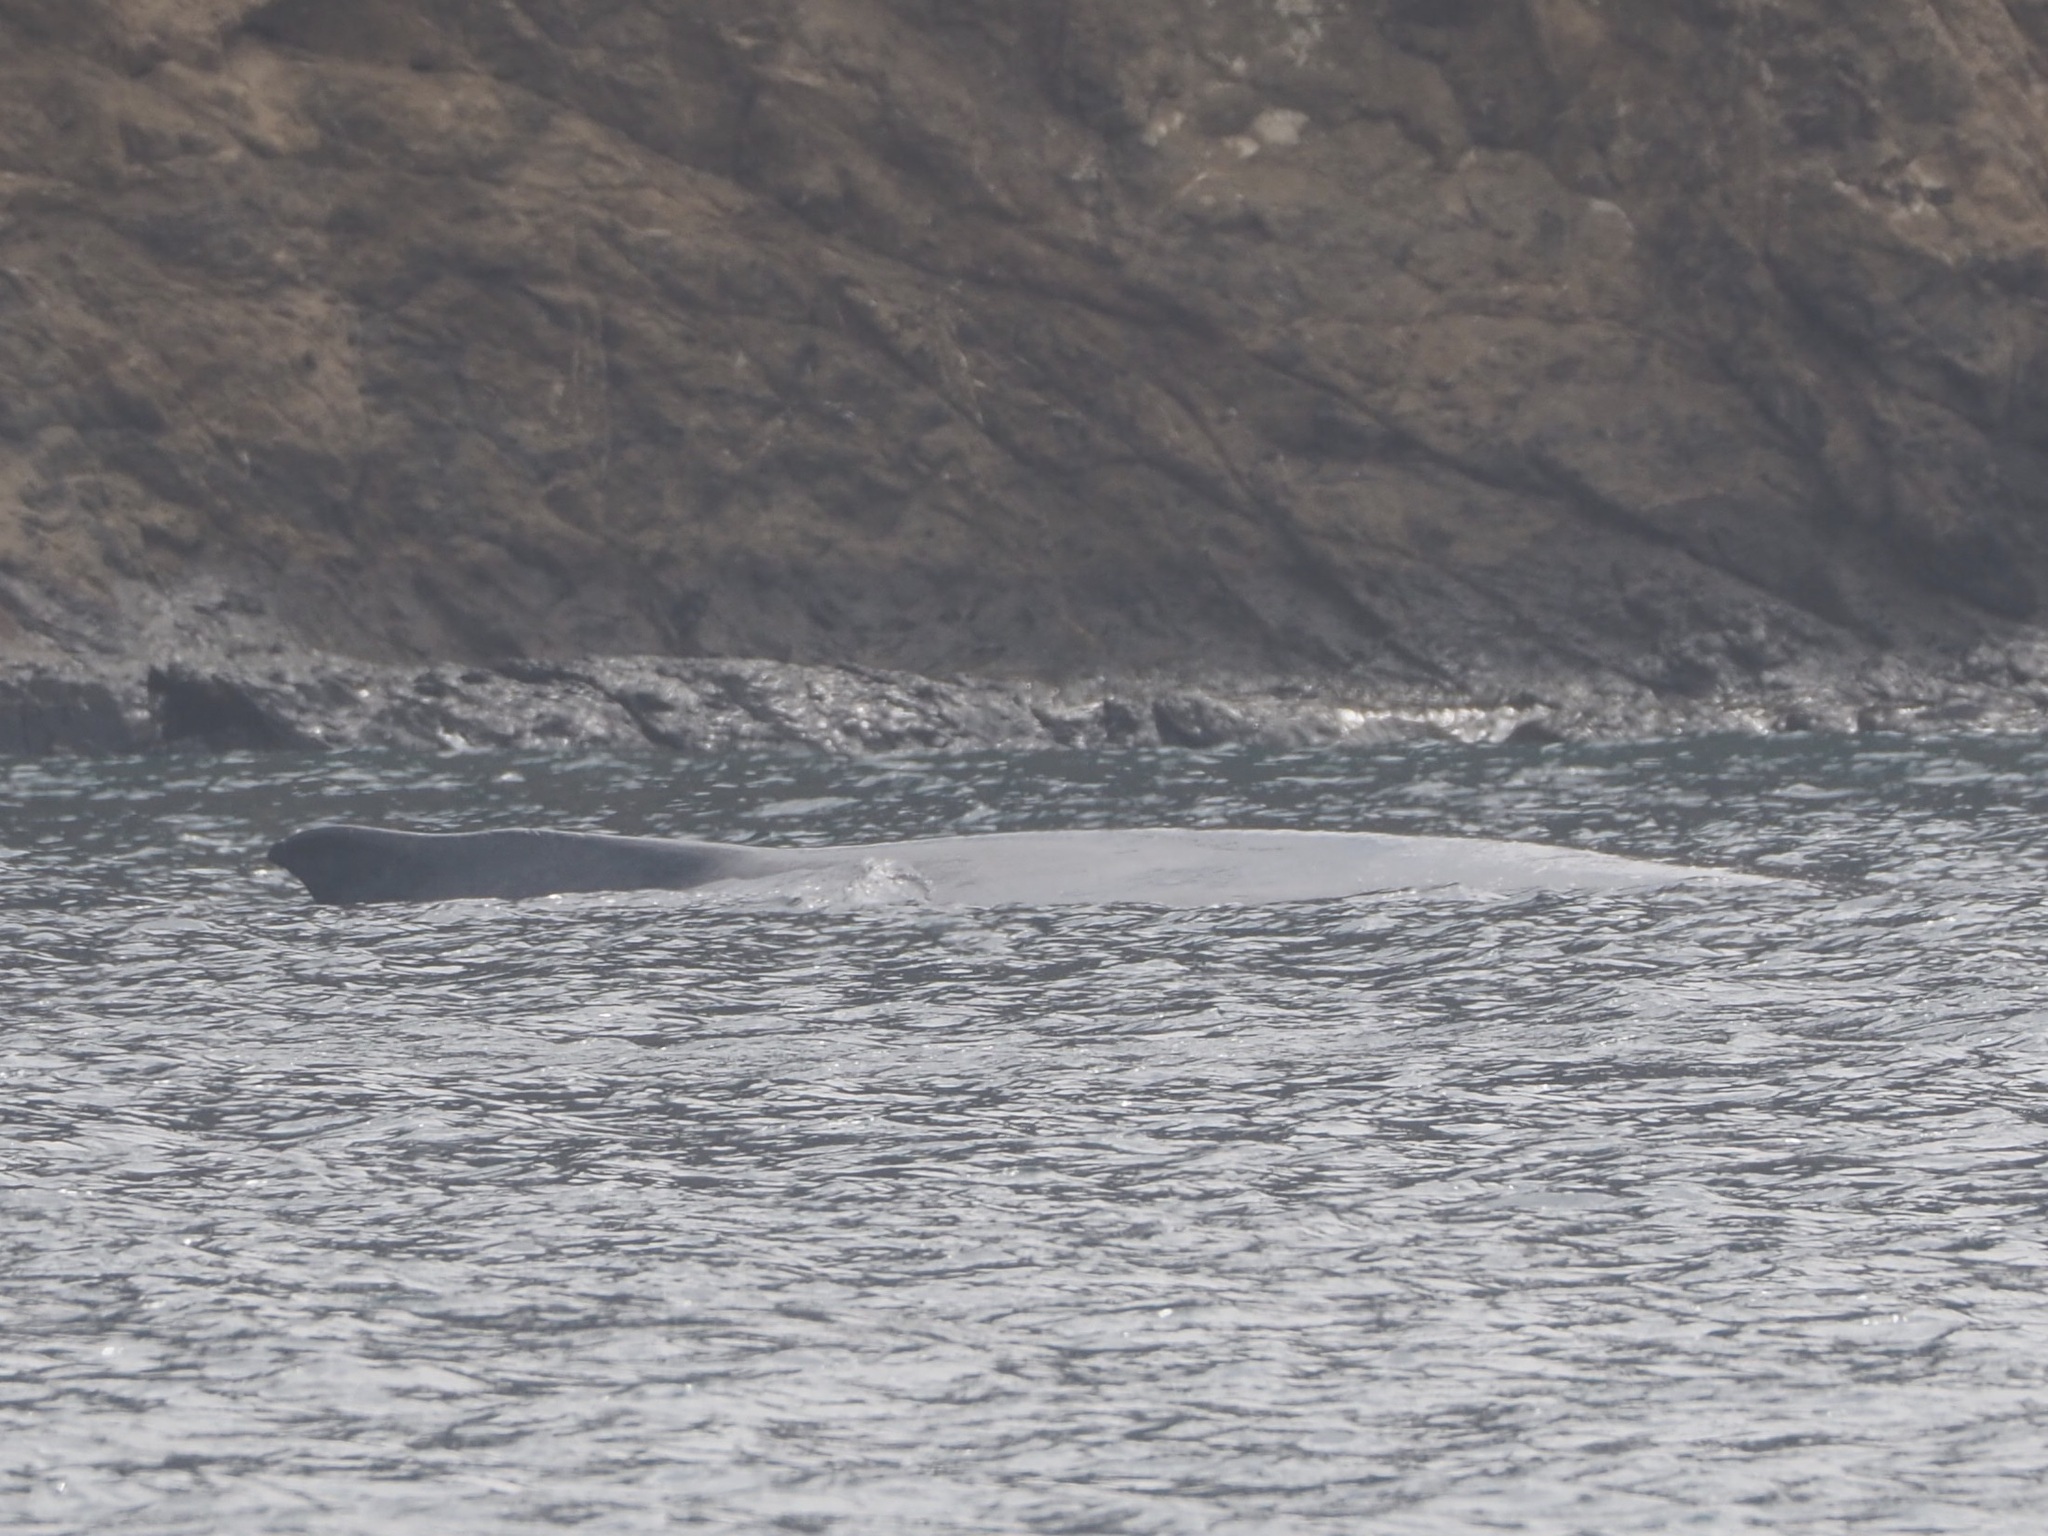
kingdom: Animalia
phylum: Chordata
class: Mammalia
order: Cetacea
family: Balaenopteridae
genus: Megaptera
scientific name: Megaptera novaeangliae
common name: Humpback whale
